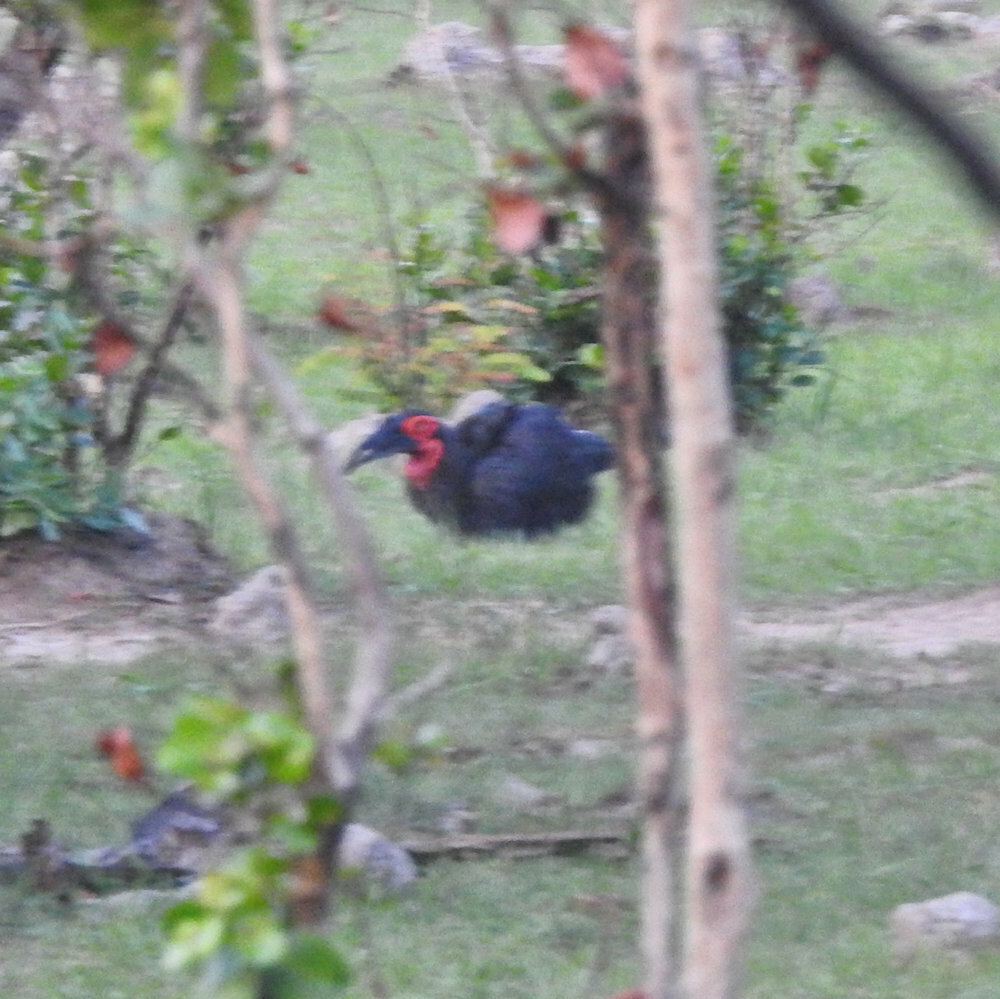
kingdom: Animalia
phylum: Chordata
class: Aves
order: Bucerotiformes
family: Bucorvidae
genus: Bucorvus
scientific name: Bucorvus leadbeateri
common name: Southern ground-hornbill
